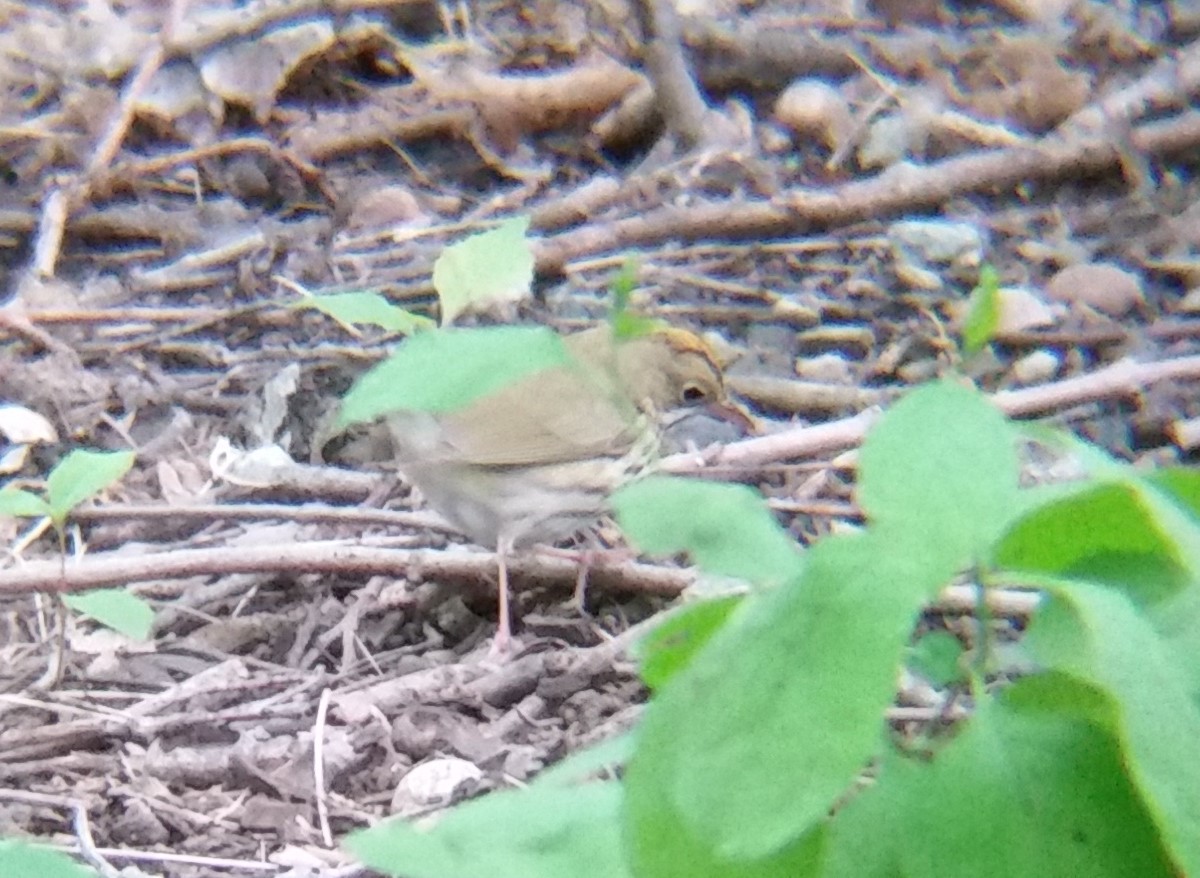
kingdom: Animalia
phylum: Chordata
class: Aves
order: Passeriformes
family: Parulidae
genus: Seiurus
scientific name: Seiurus aurocapilla
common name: Ovenbird
